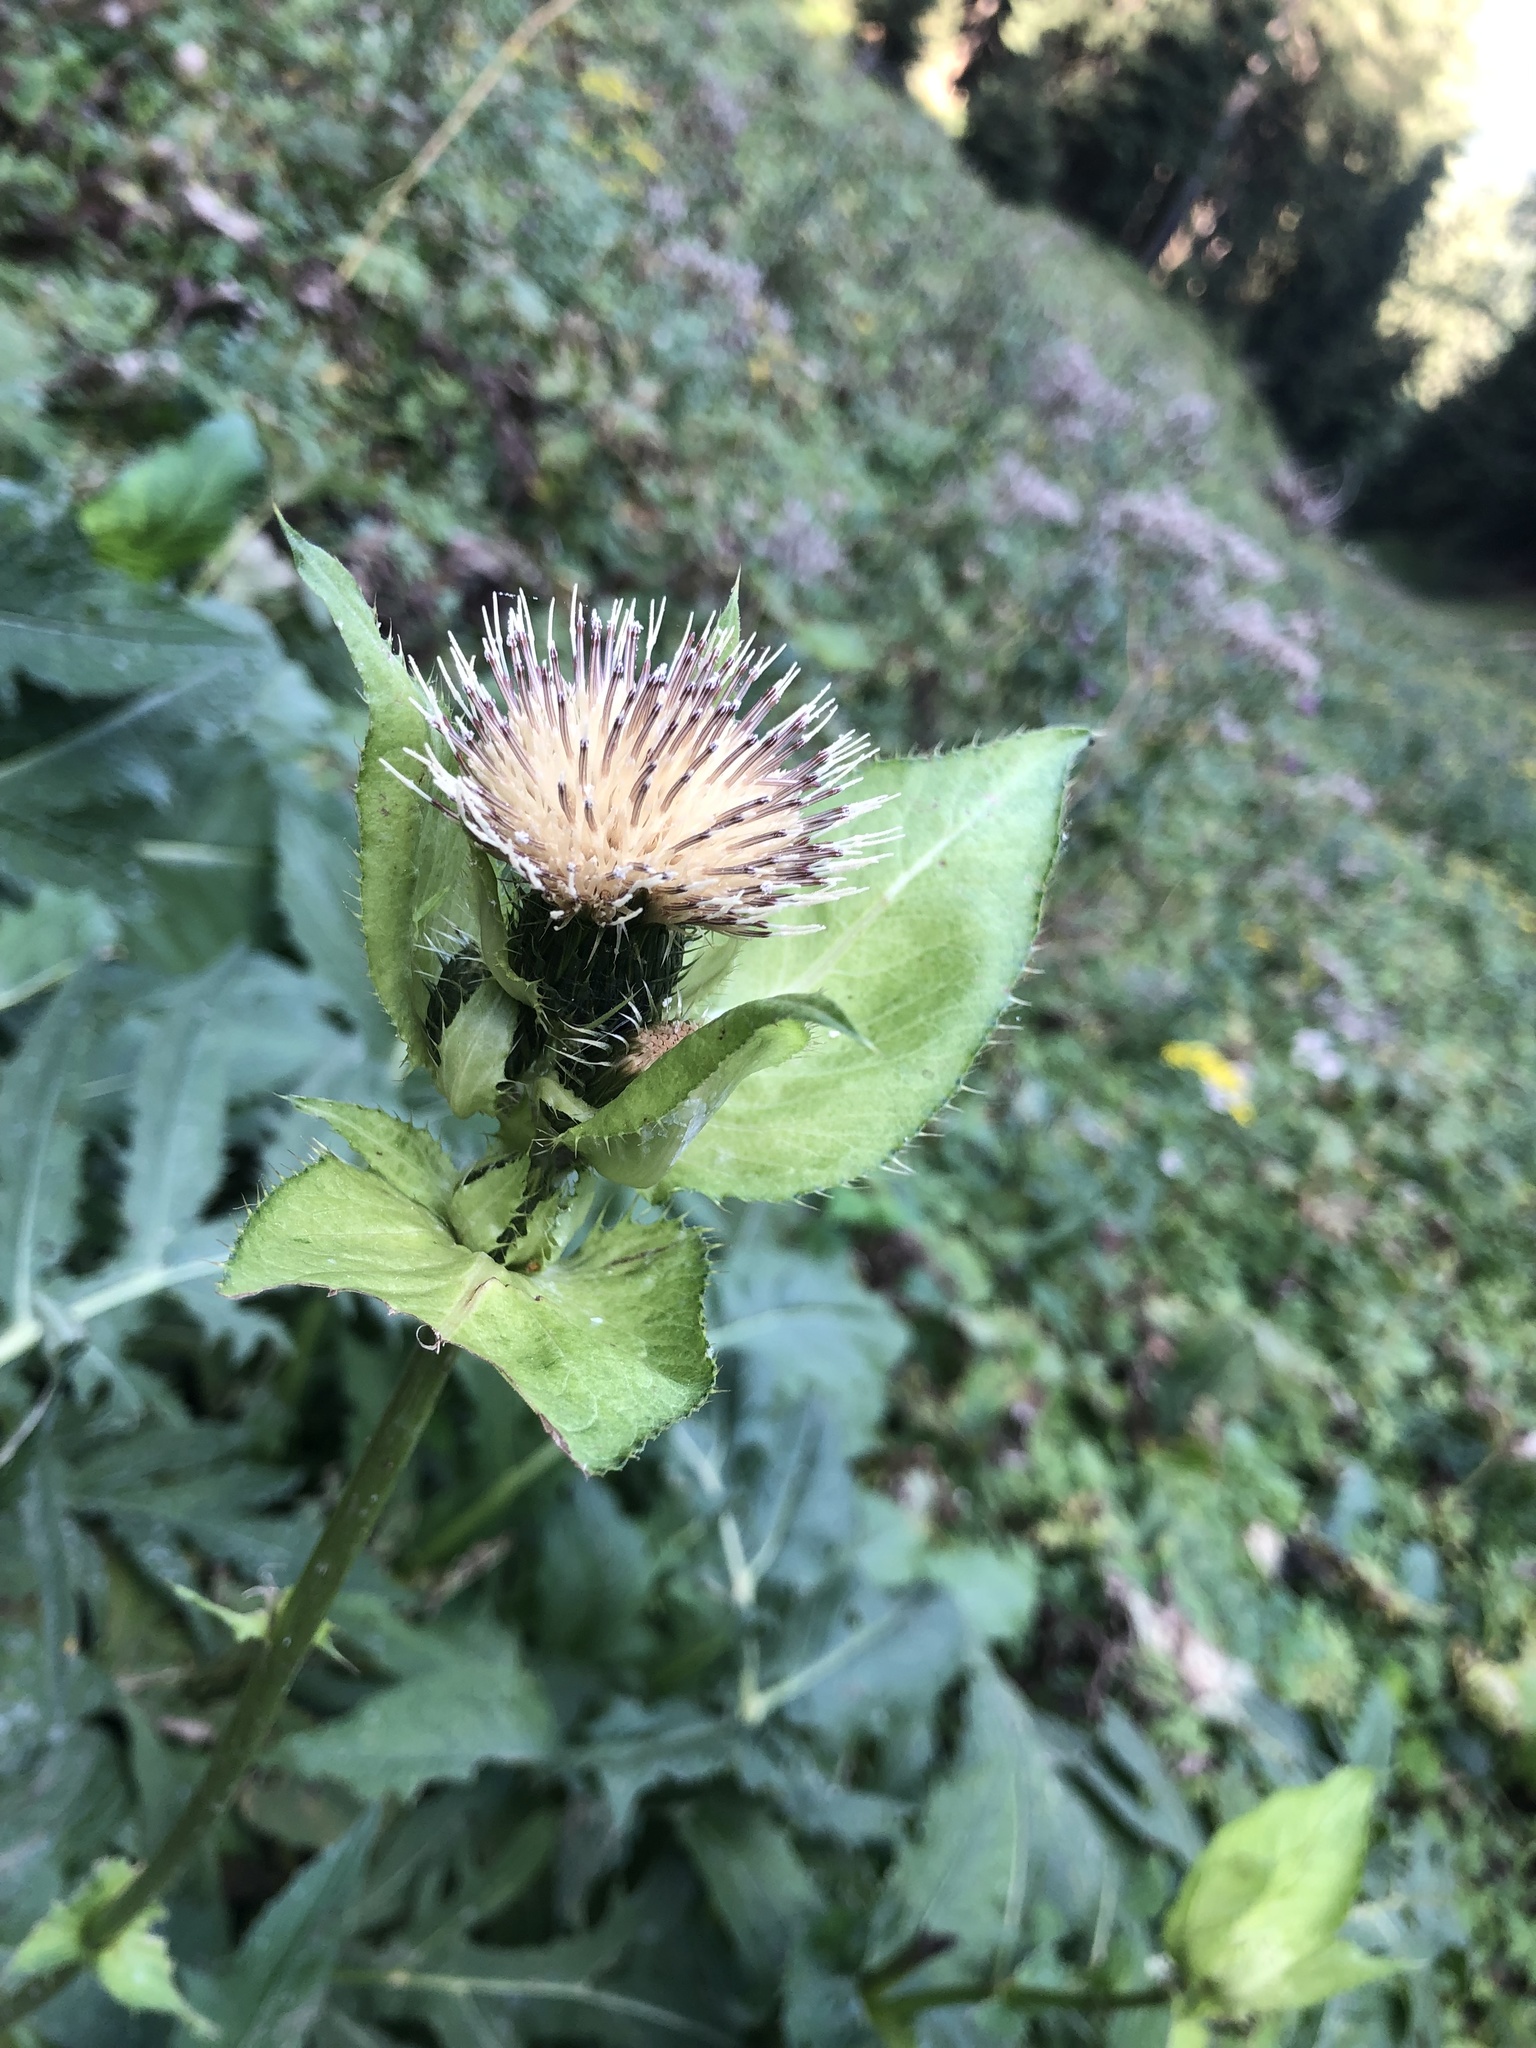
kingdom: Plantae
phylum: Tracheophyta
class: Magnoliopsida
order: Asterales
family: Asteraceae
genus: Cirsium
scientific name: Cirsium oleraceum
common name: Cabbage thistle
